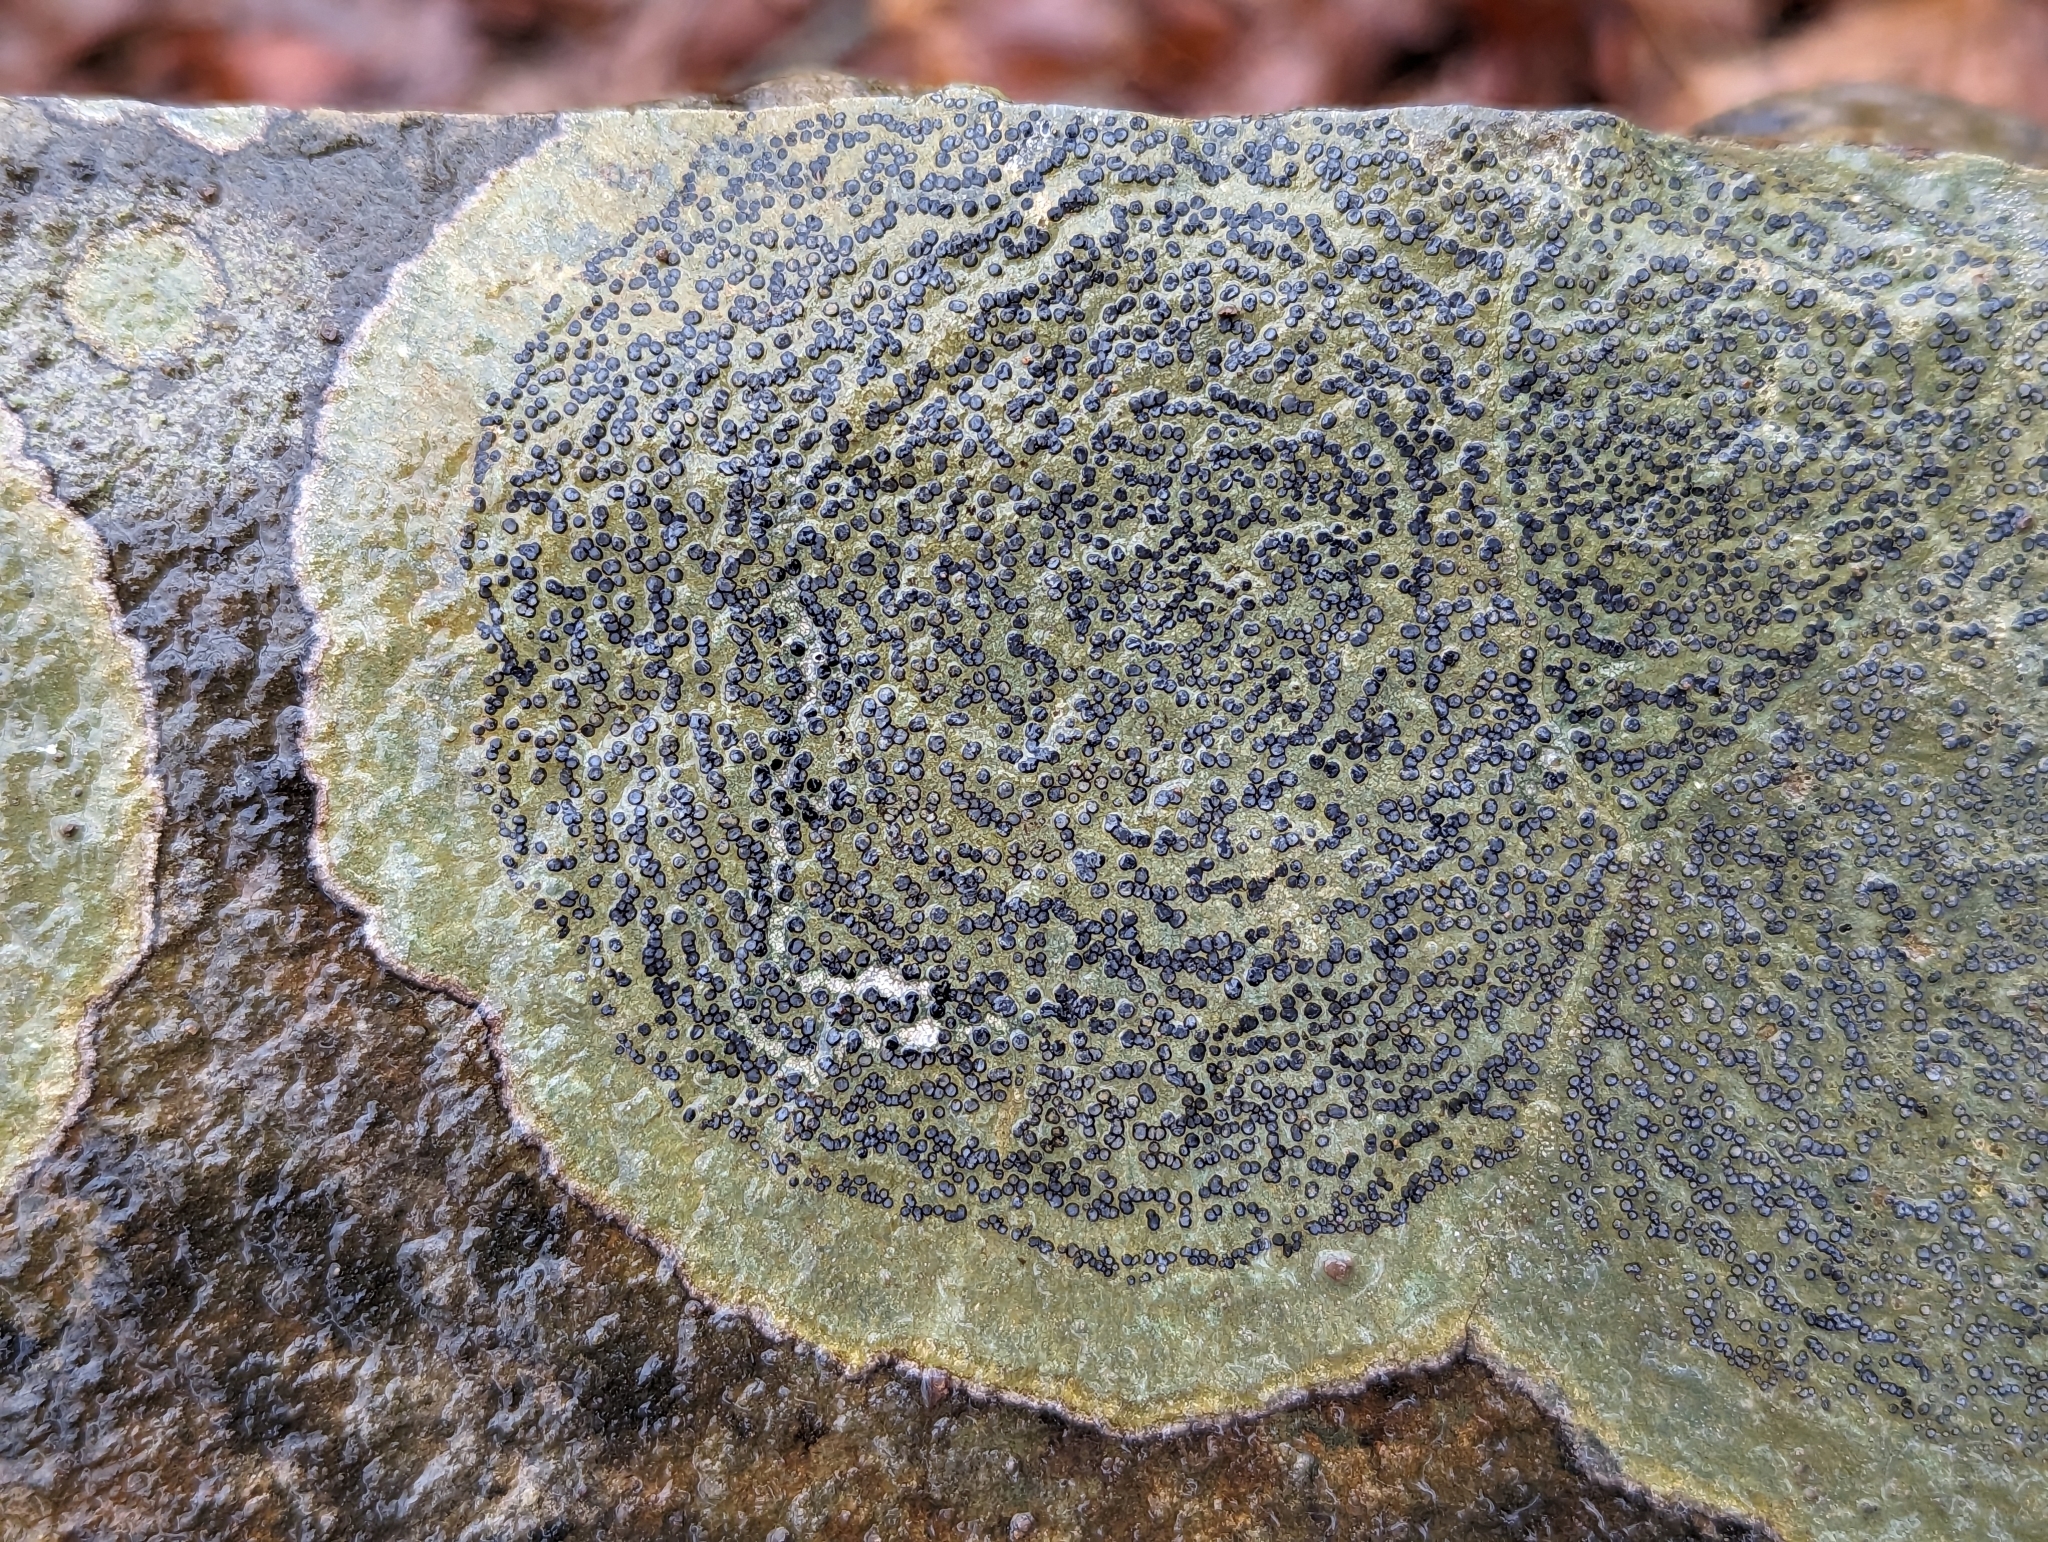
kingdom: Fungi
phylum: Ascomycota
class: Lecanoromycetes
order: Lecideales
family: Lecideaceae
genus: Porpidia
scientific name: Porpidia albocaerulescens
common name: Smokey-eyed boulder lichen
